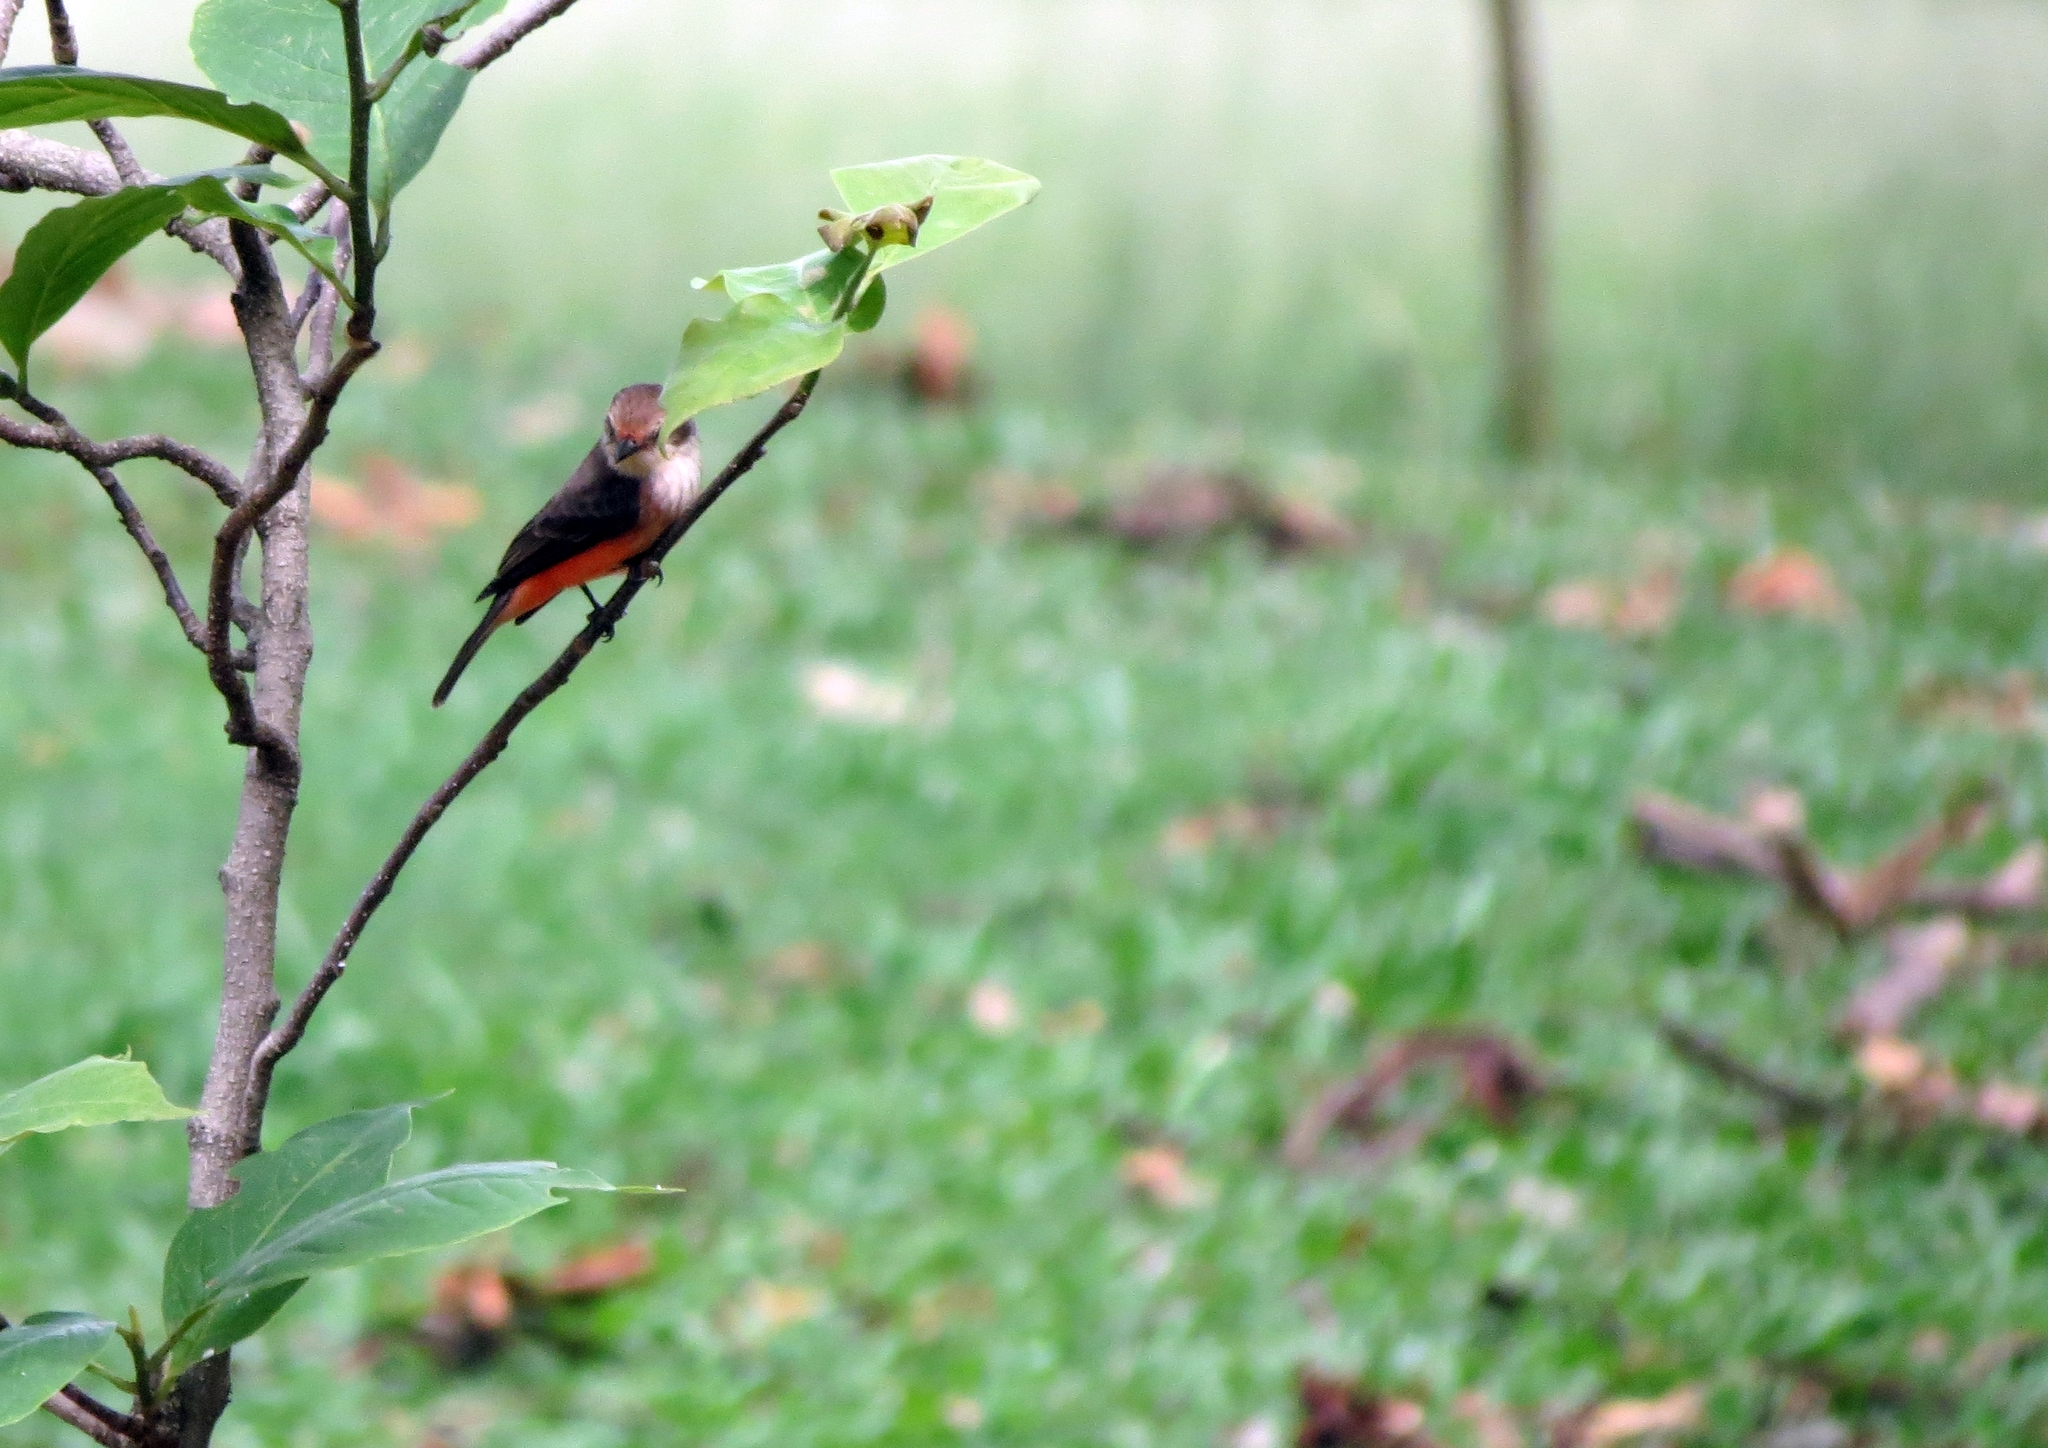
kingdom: Animalia
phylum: Chordata
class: Aves
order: Passeriformes
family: Tyrannidae
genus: Pyrocephalus
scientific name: Pyrocephalus rubinus
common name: Vermilion flycatcher
